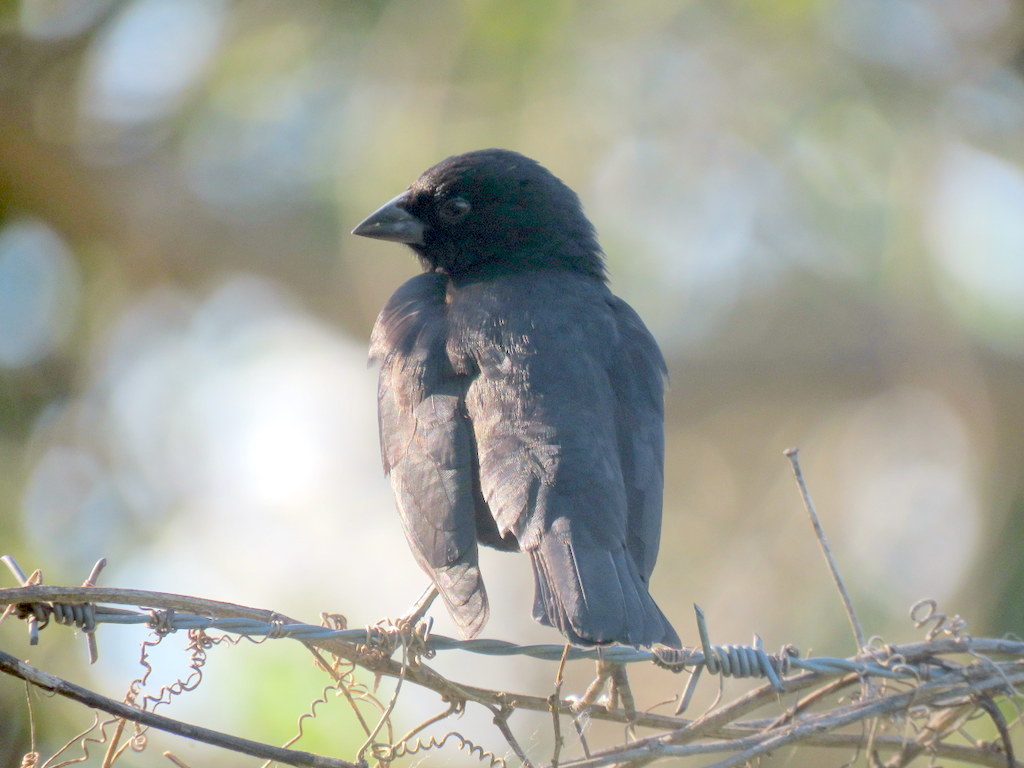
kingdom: Animalia
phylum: Chordata
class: Aves
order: Passeriformes
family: Icteridae
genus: Molothrus
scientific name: Molothrus rufoaxillaris
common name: Screaming cowbird
